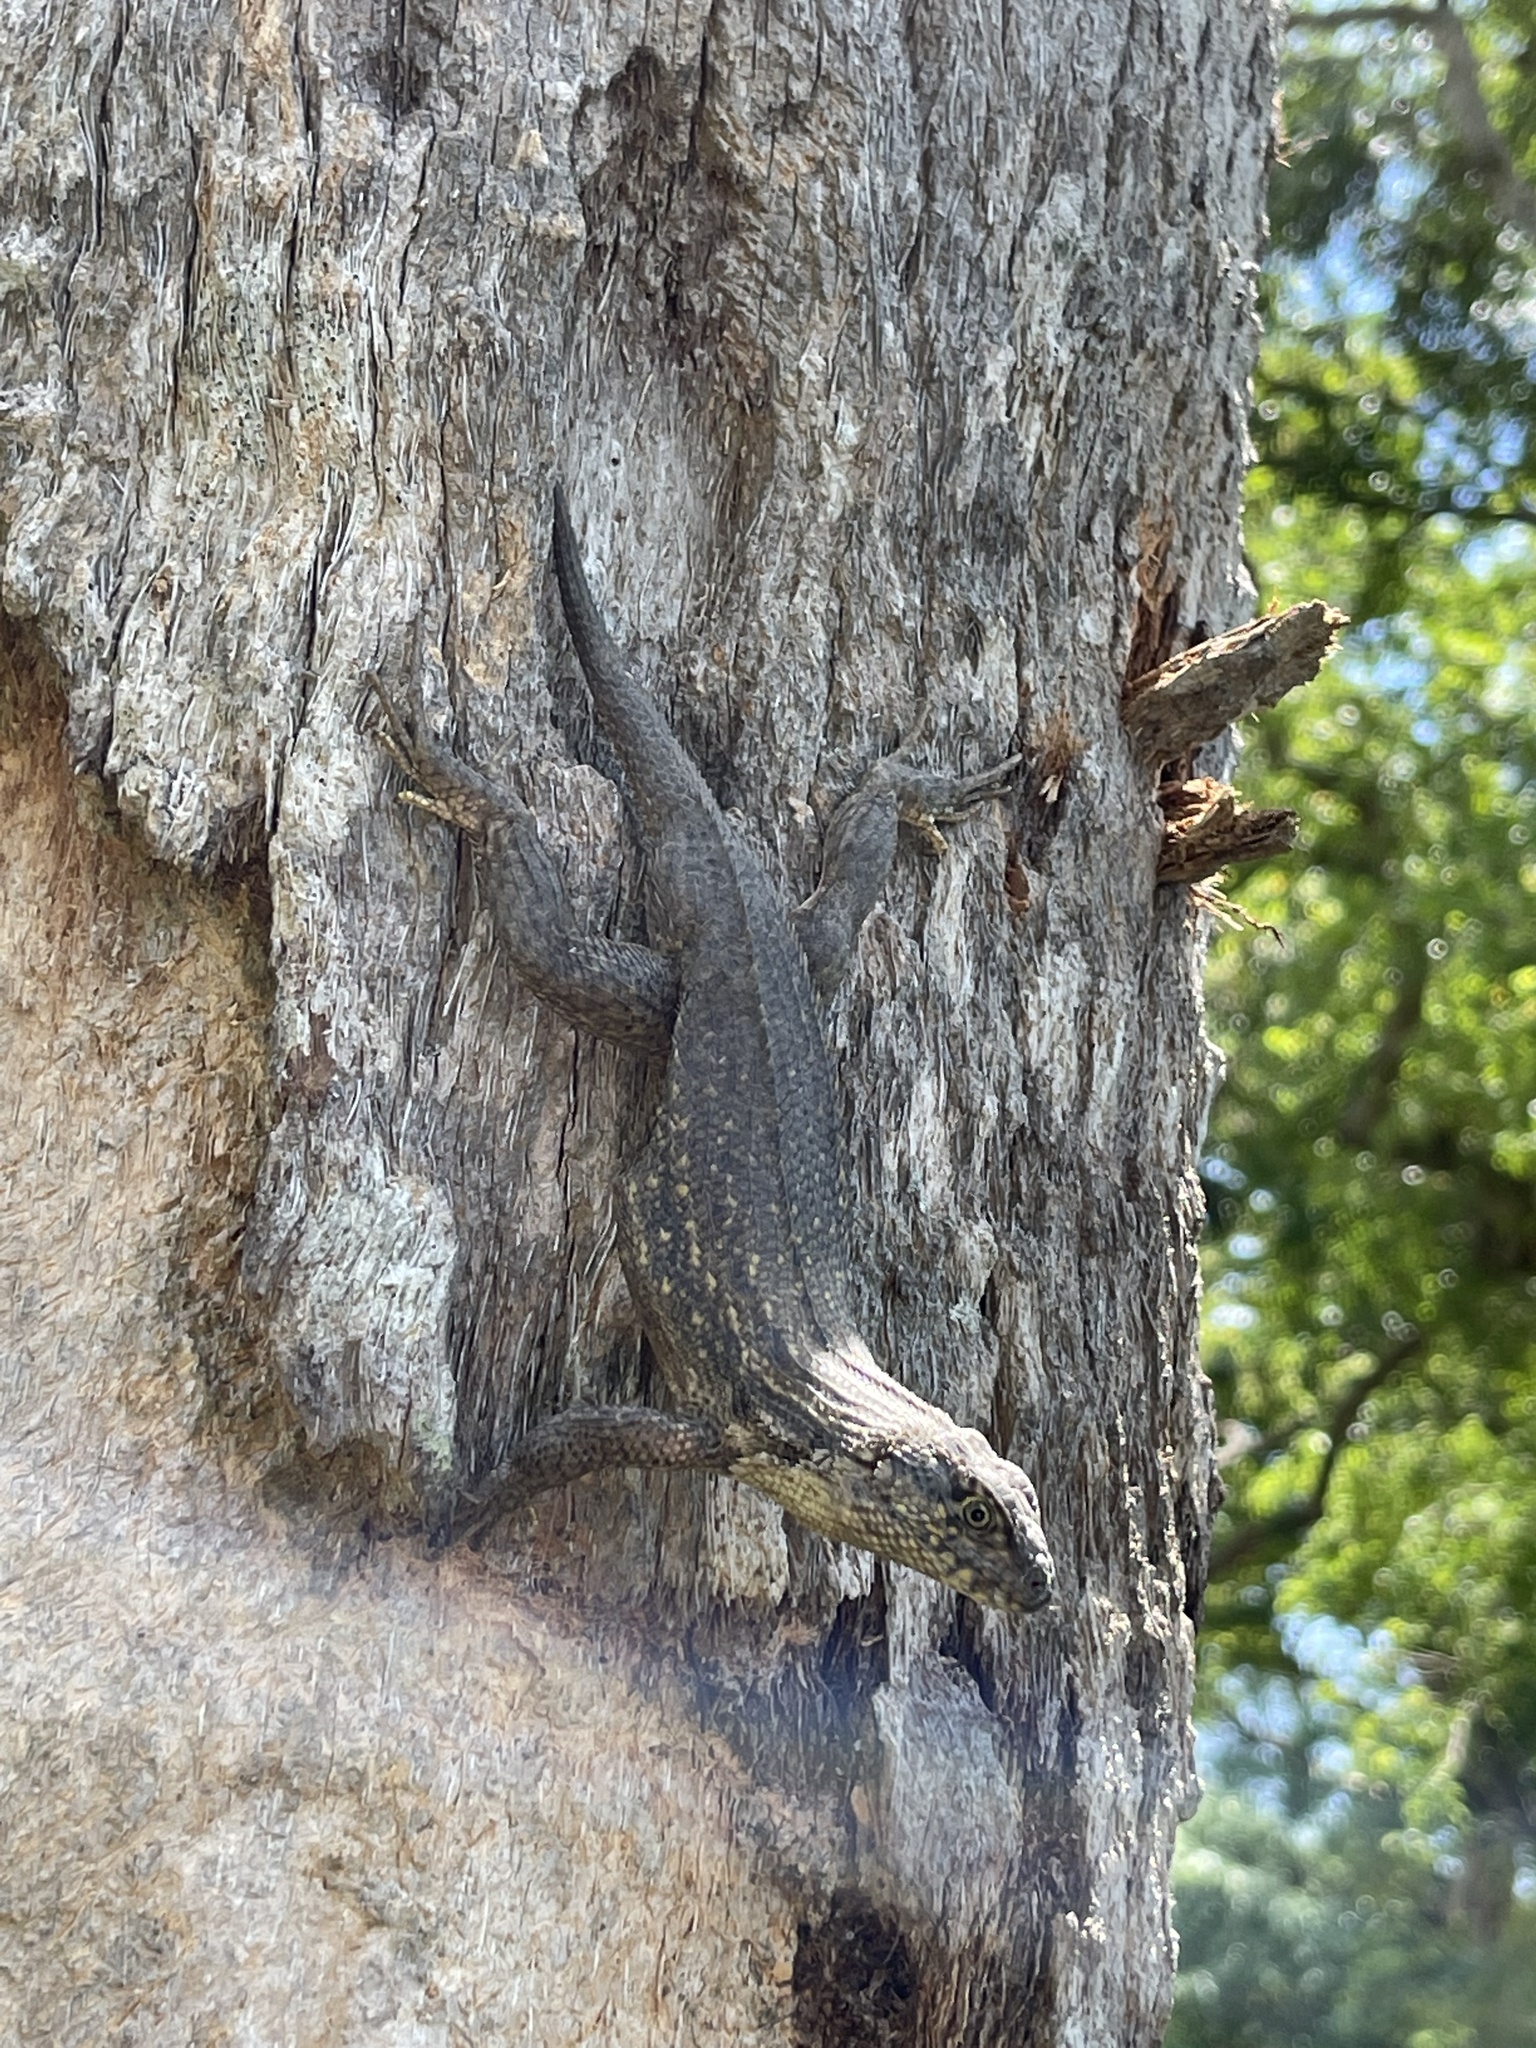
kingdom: Animalia
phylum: Chordata
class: Squamata
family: Leiocephalidae
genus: Leiocephalus
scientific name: Leiocephalus carinatus
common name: Northern curly-tailed lizard
